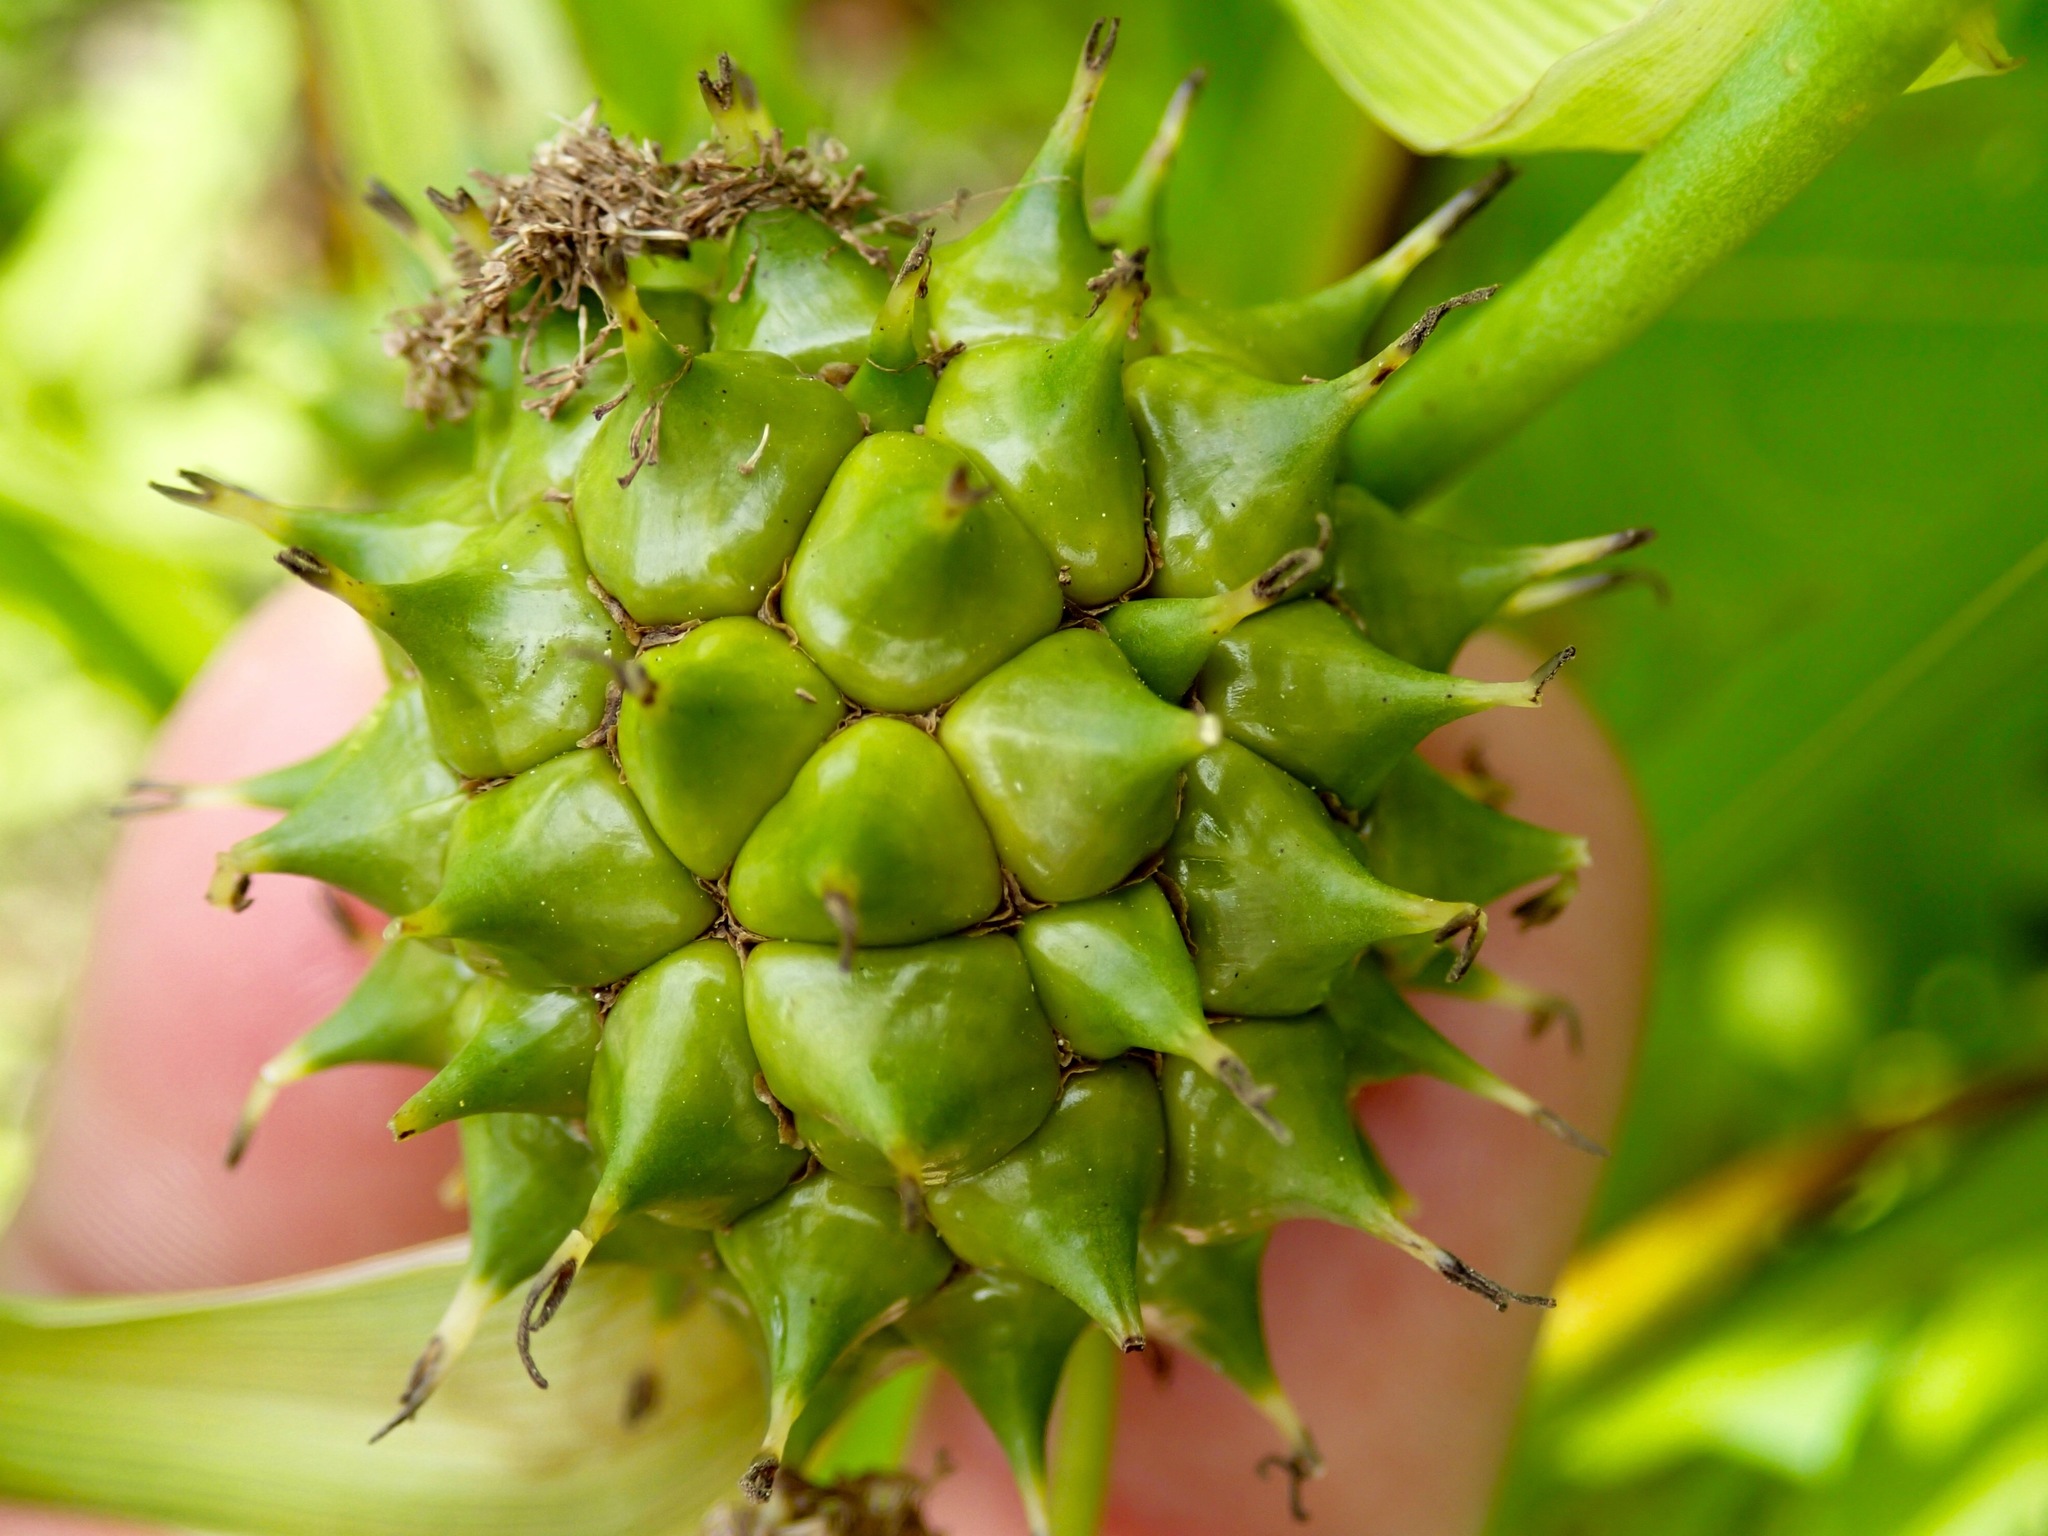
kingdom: Plantae
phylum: Tracheophyta
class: Liliopsida
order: Poales
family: Typhaceae
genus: Sparganium
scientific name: Sparganium eurycarpum
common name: Broad-fruited burreed
